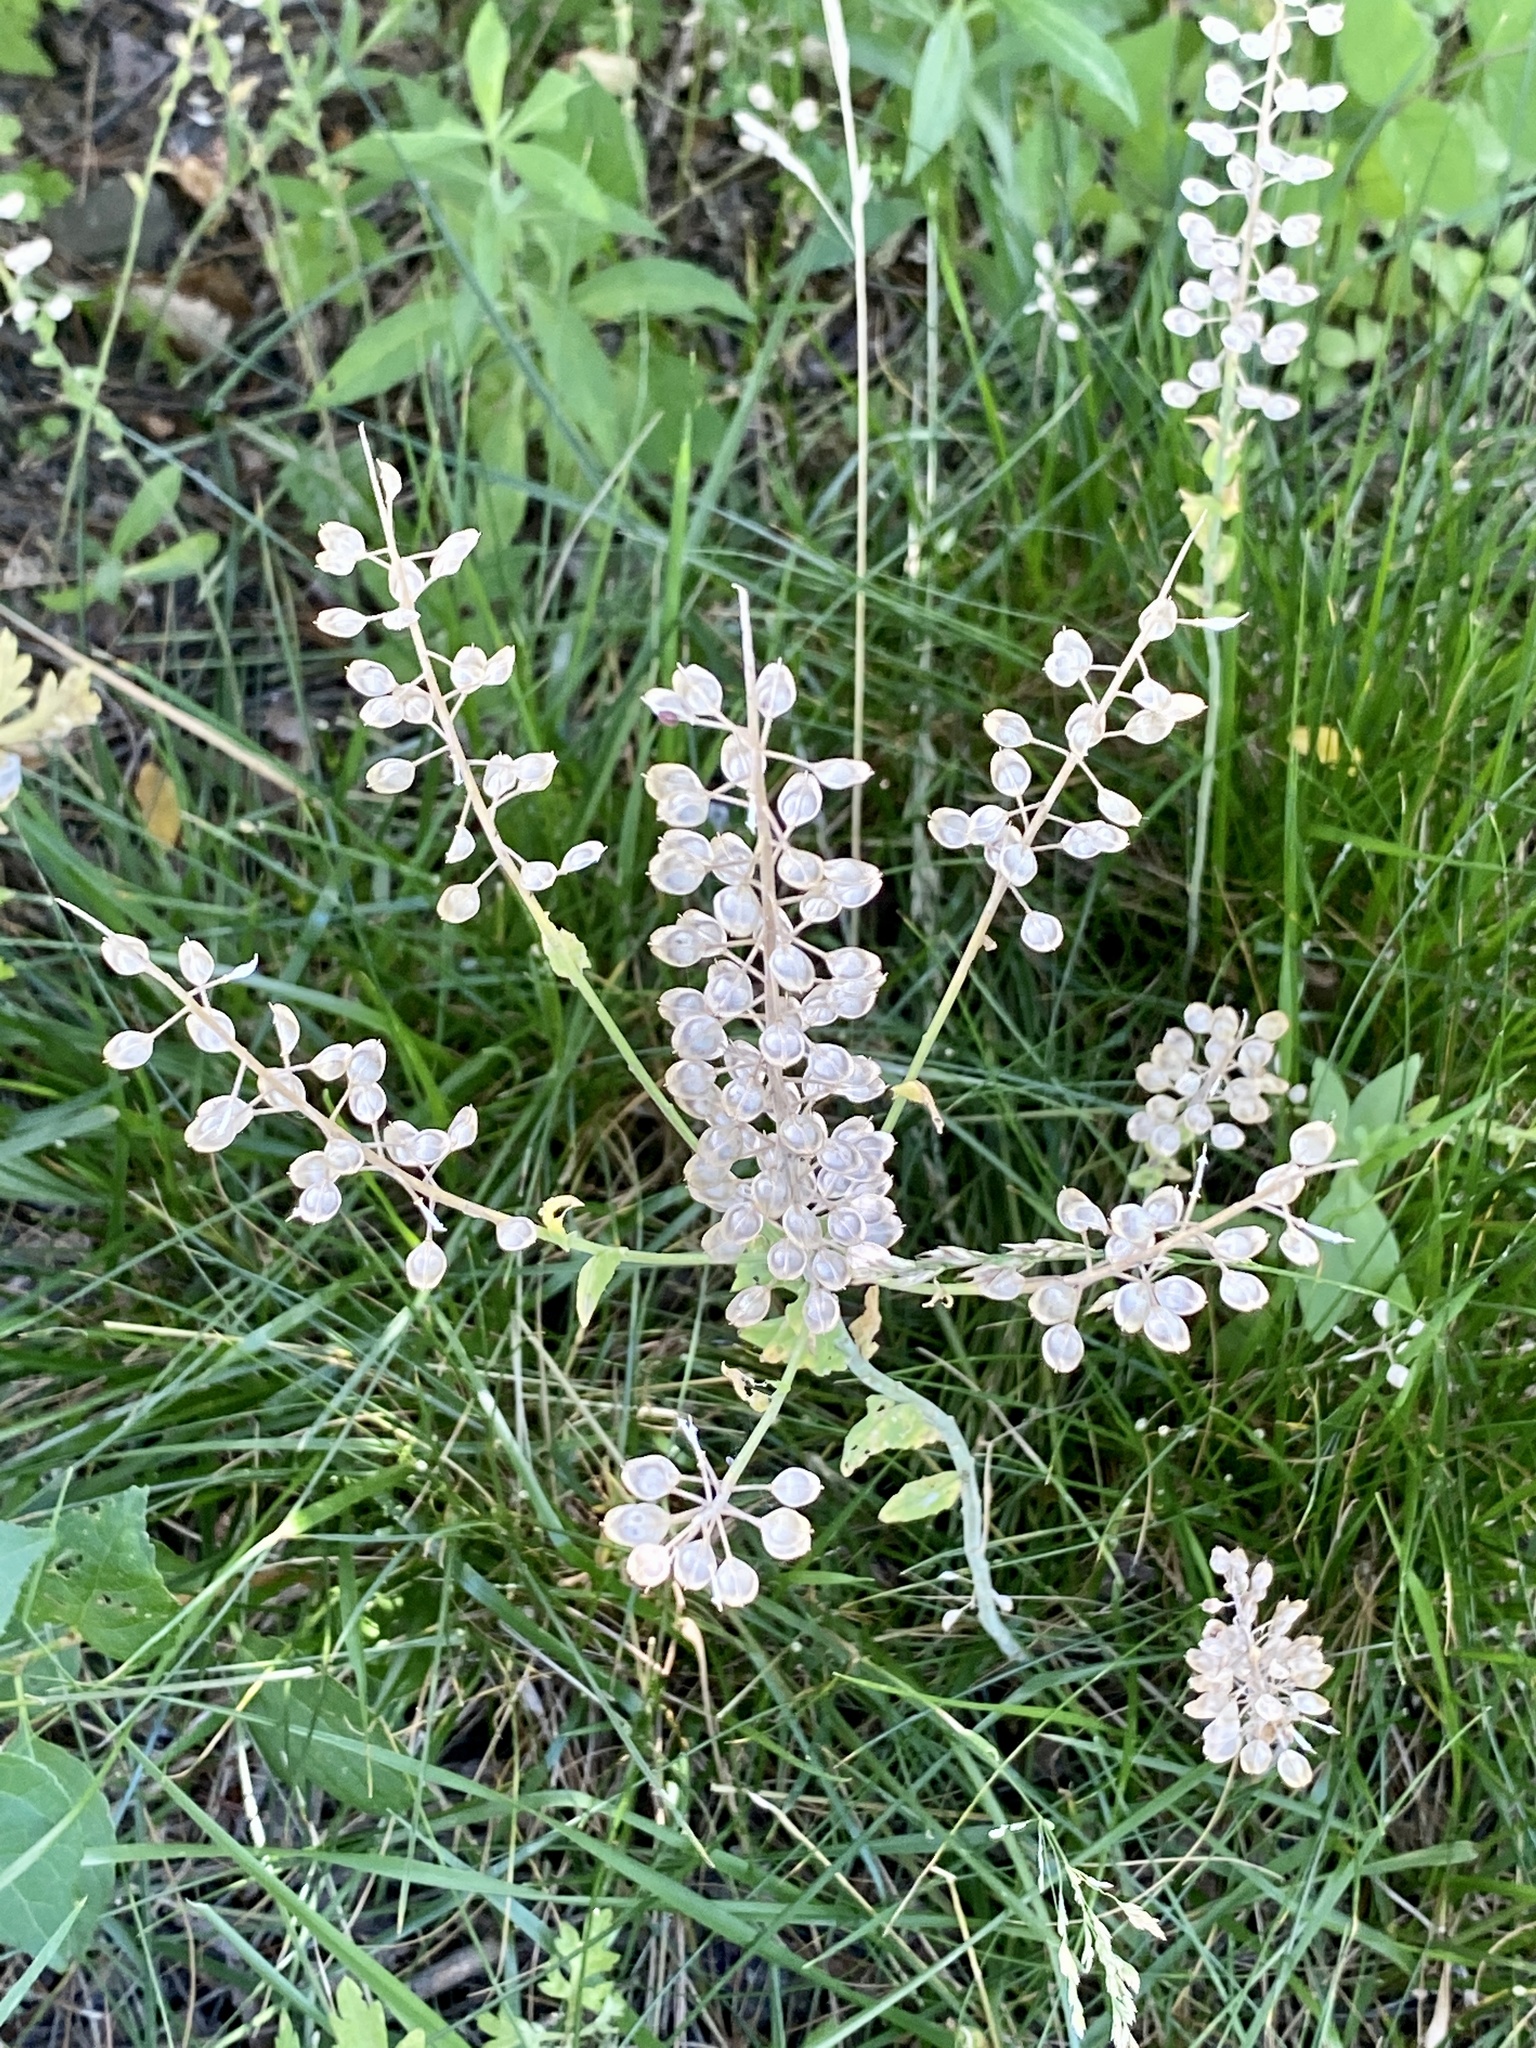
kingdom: Plantae
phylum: Tracheophyta
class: Magnoliopsida
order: Brassicales
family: Brassicaceae
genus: Lepidium
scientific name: Lepidium campestre
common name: Field pepperwort
